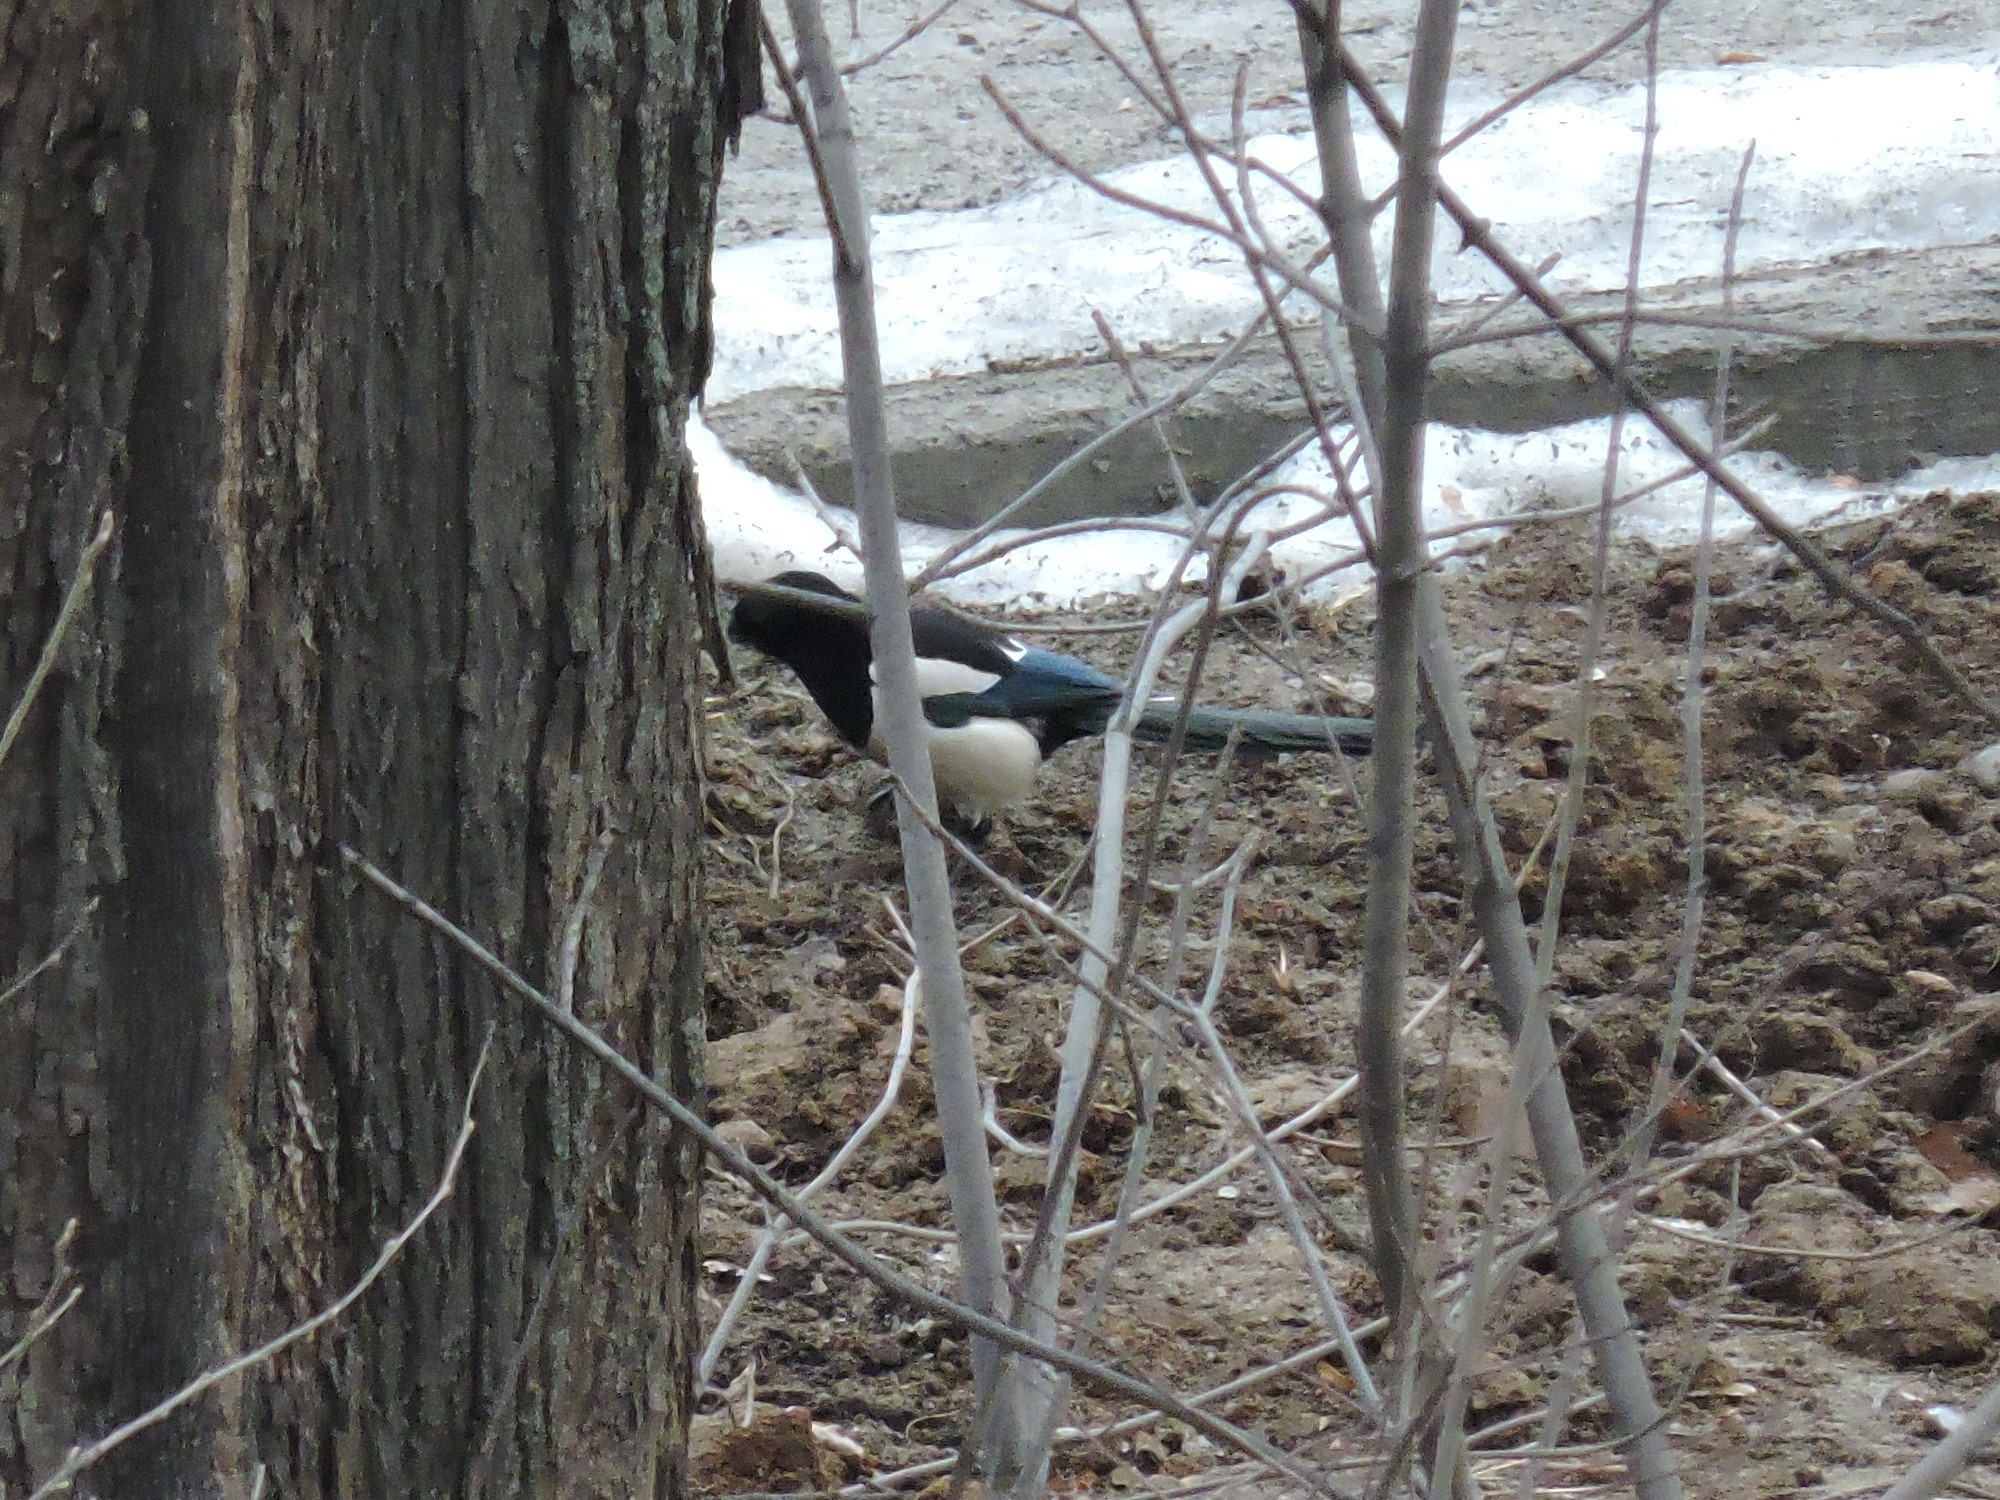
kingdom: Animalia
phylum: Chordata
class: Aves
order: Passeriformes
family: Corvidae
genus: Pica
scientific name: Pica pica
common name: Eurasian magpie
